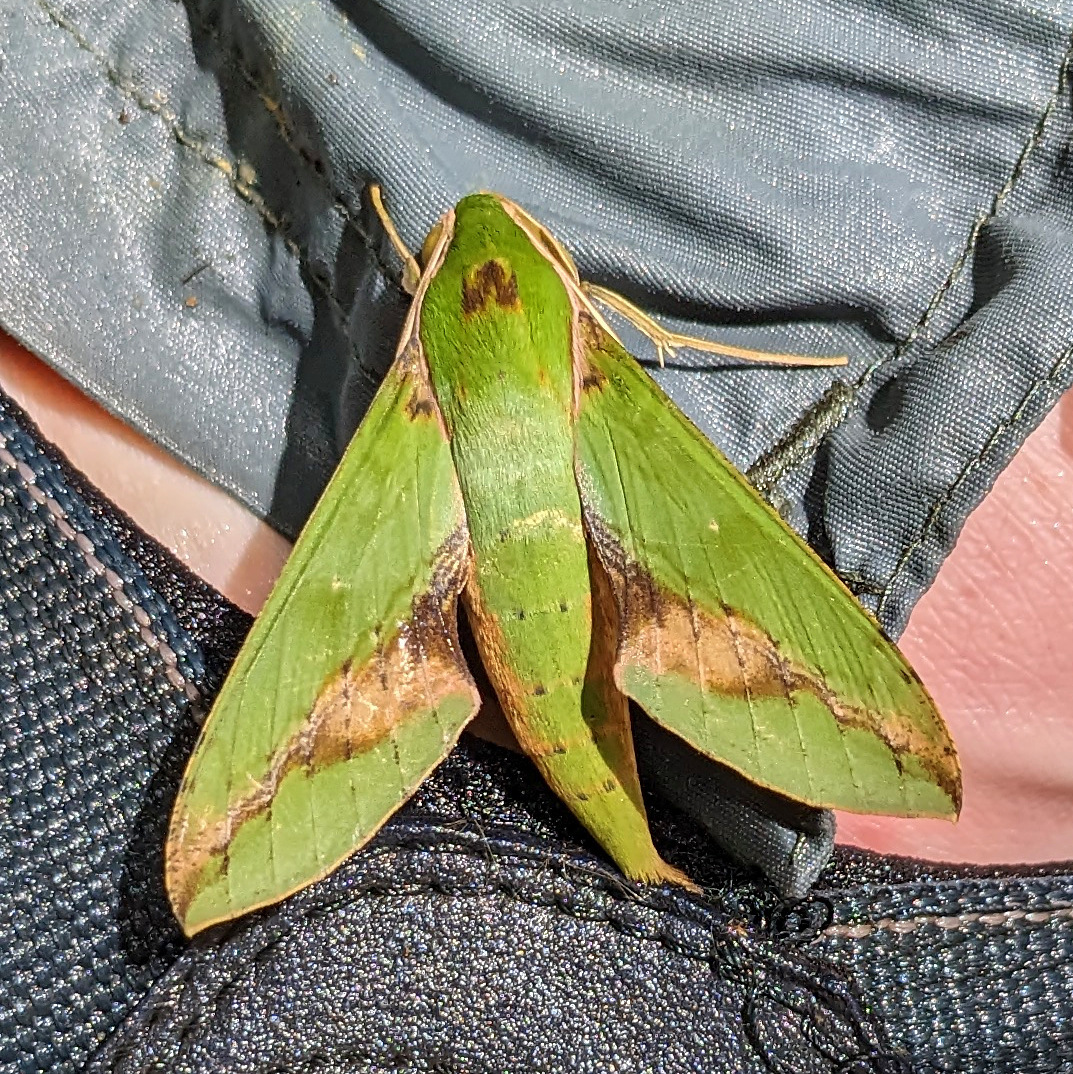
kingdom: Animalia
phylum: Arthropoda
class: Insecta
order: Lepidoptera
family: Sphingidae
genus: Xylophanes
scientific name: Xylophanes chiron
